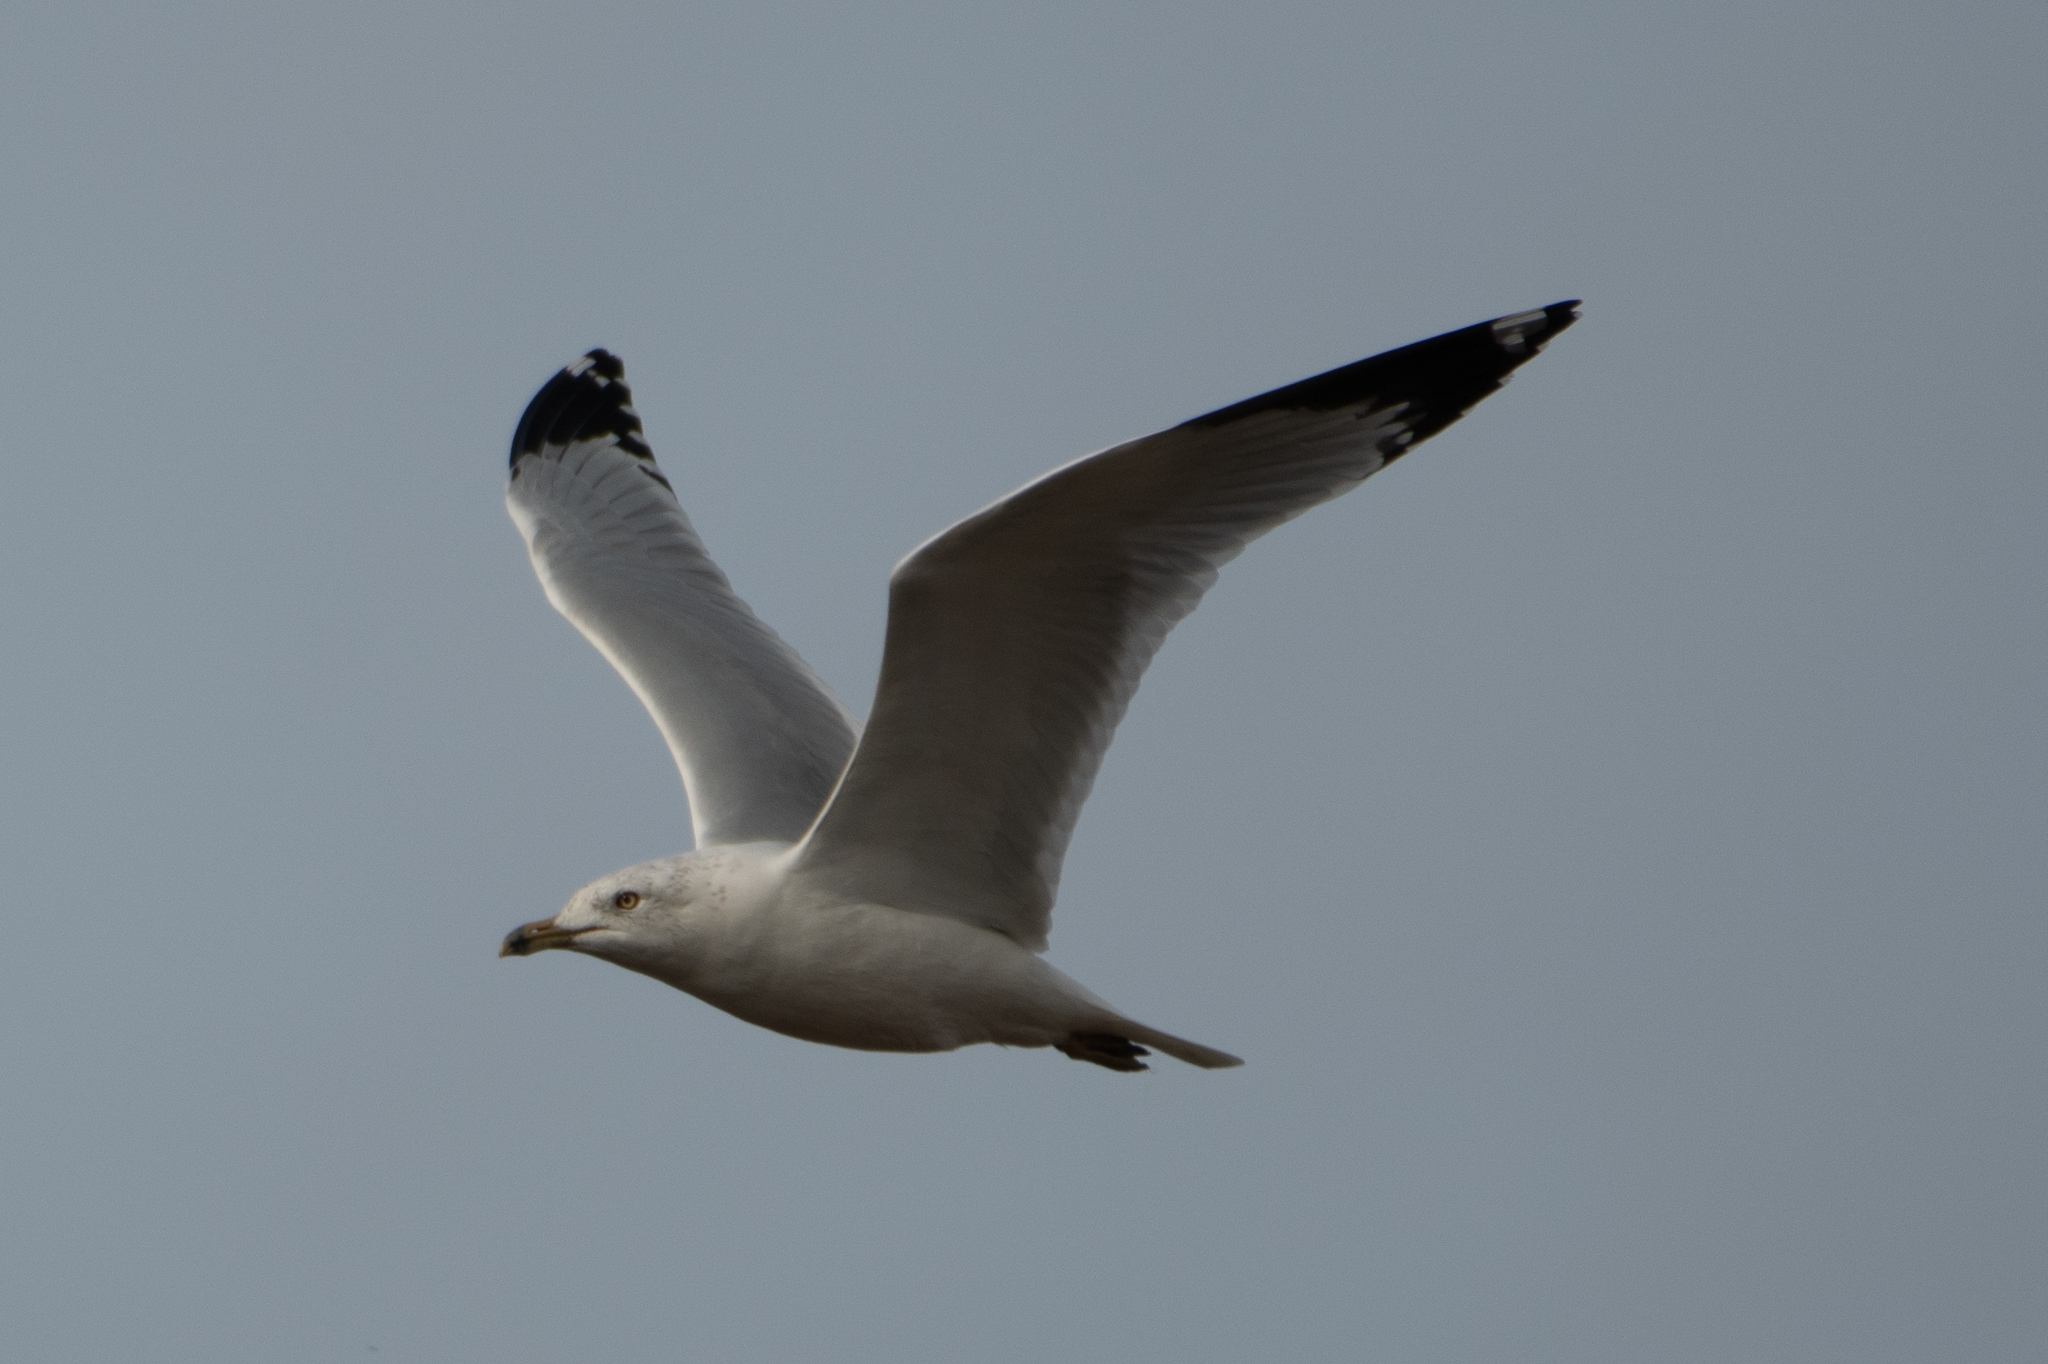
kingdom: Animalia
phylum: Chordata
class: Aves
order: Charadriiformes
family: Laridae
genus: Larus
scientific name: Larus delawarensis
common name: Ring-billed gull
